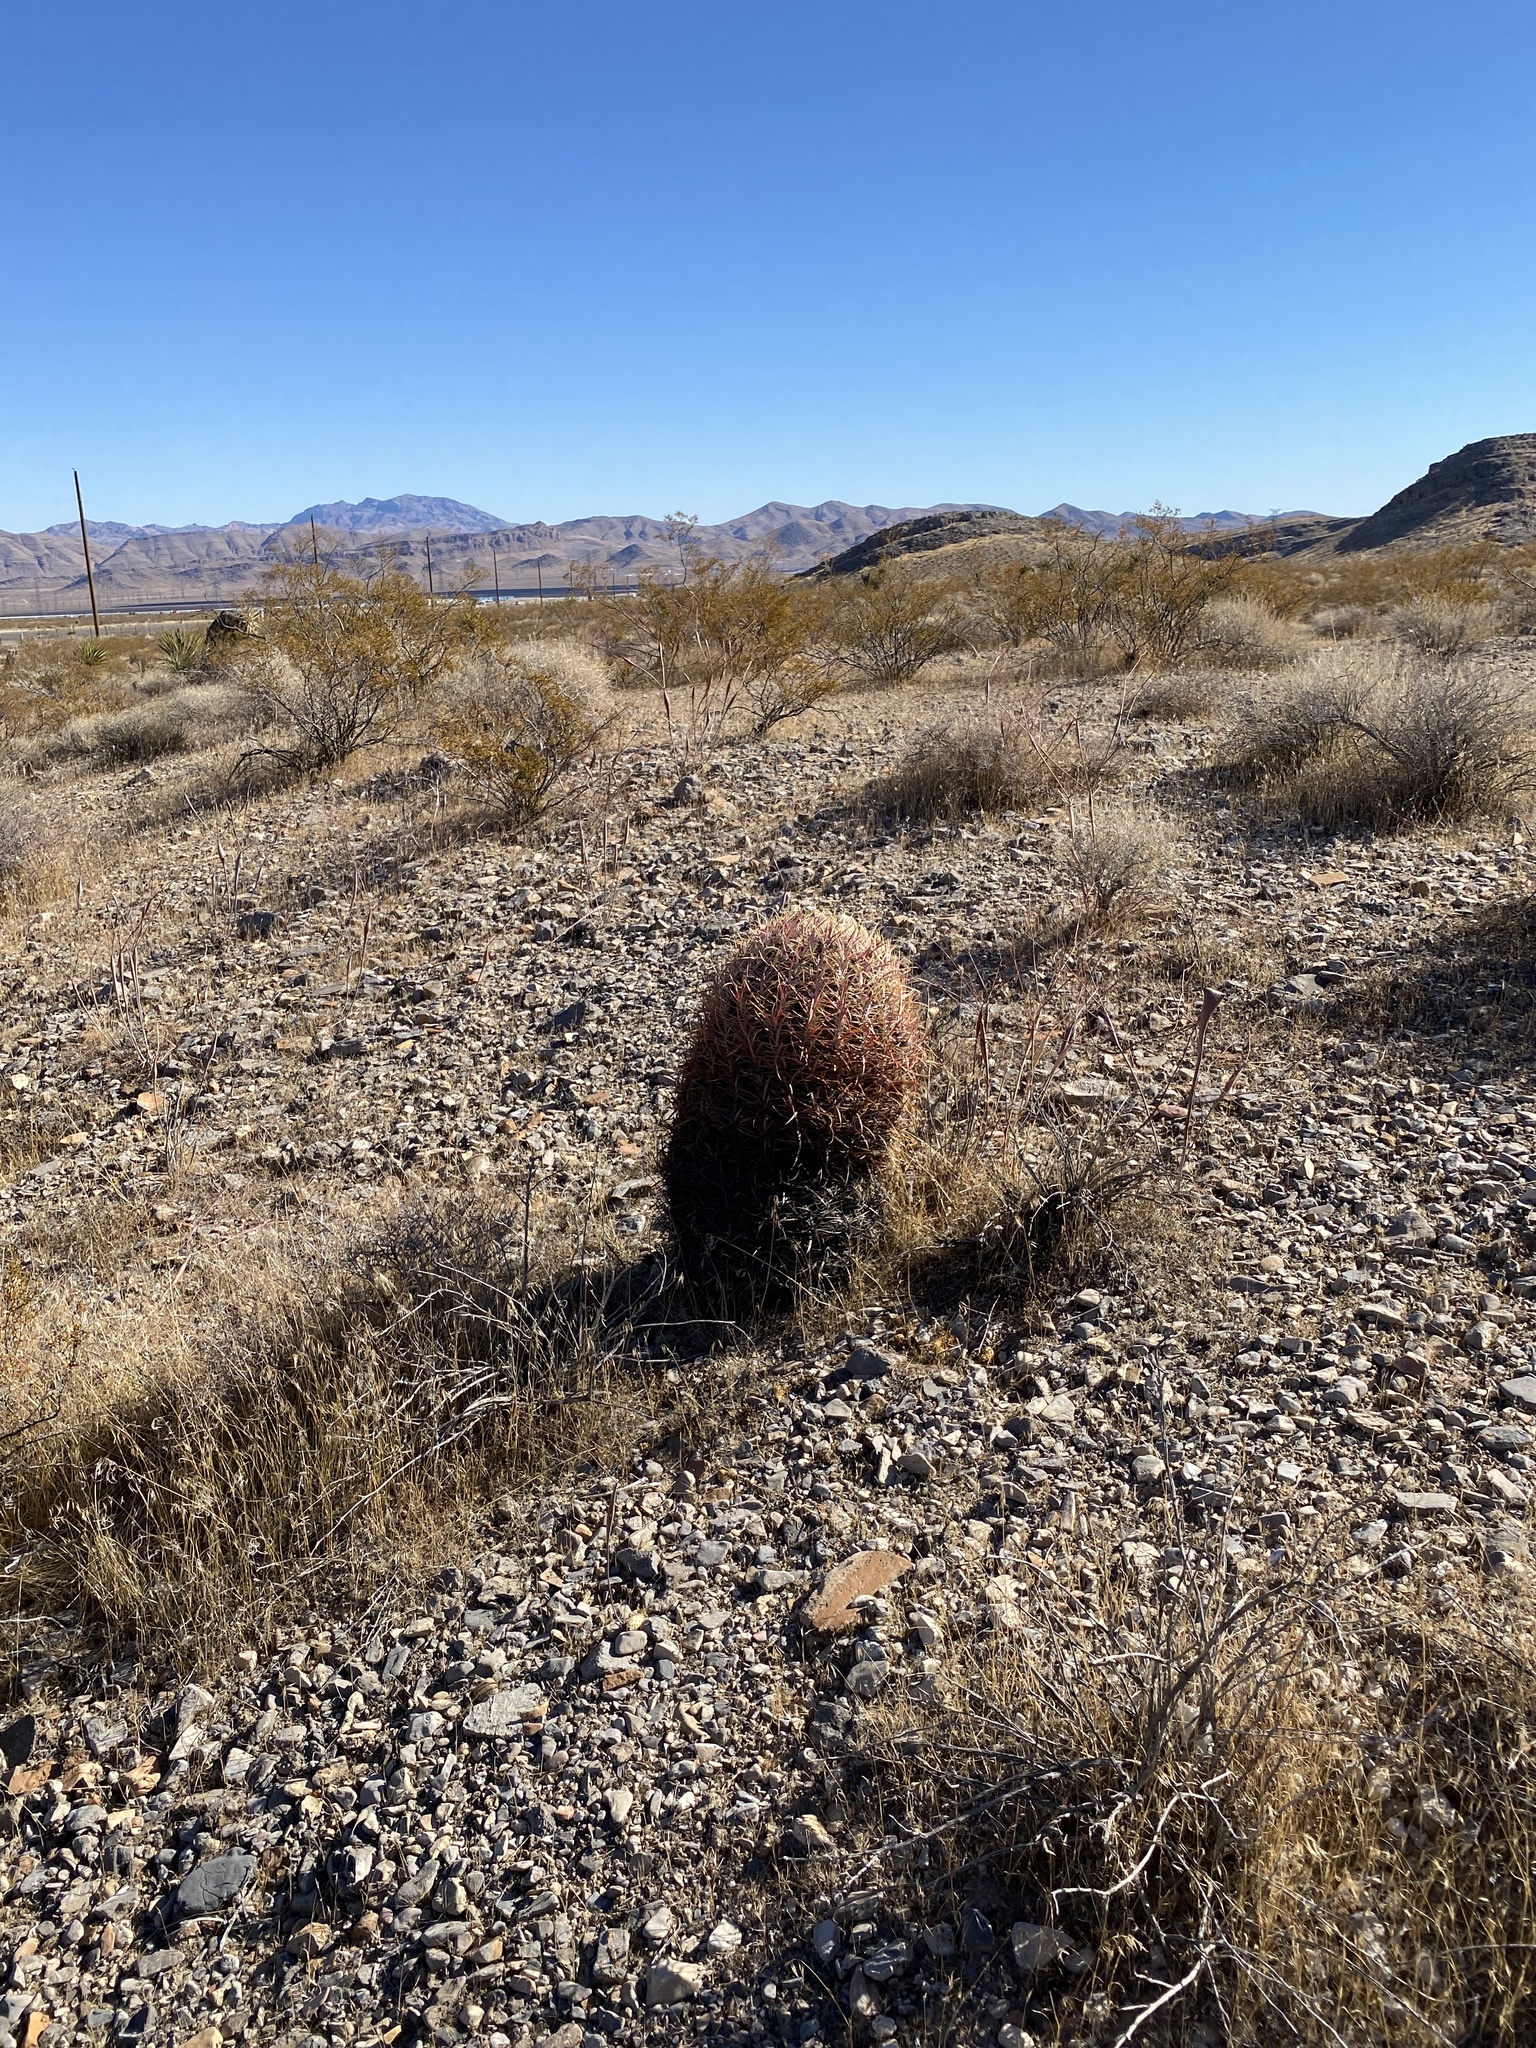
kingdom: Plantae
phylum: Tracheophyta
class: Magnoliopsida
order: Caryophyllales
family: Cactaceae
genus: Ferocactus
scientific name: Ferocactus cylindraceus
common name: California barrel cactus
